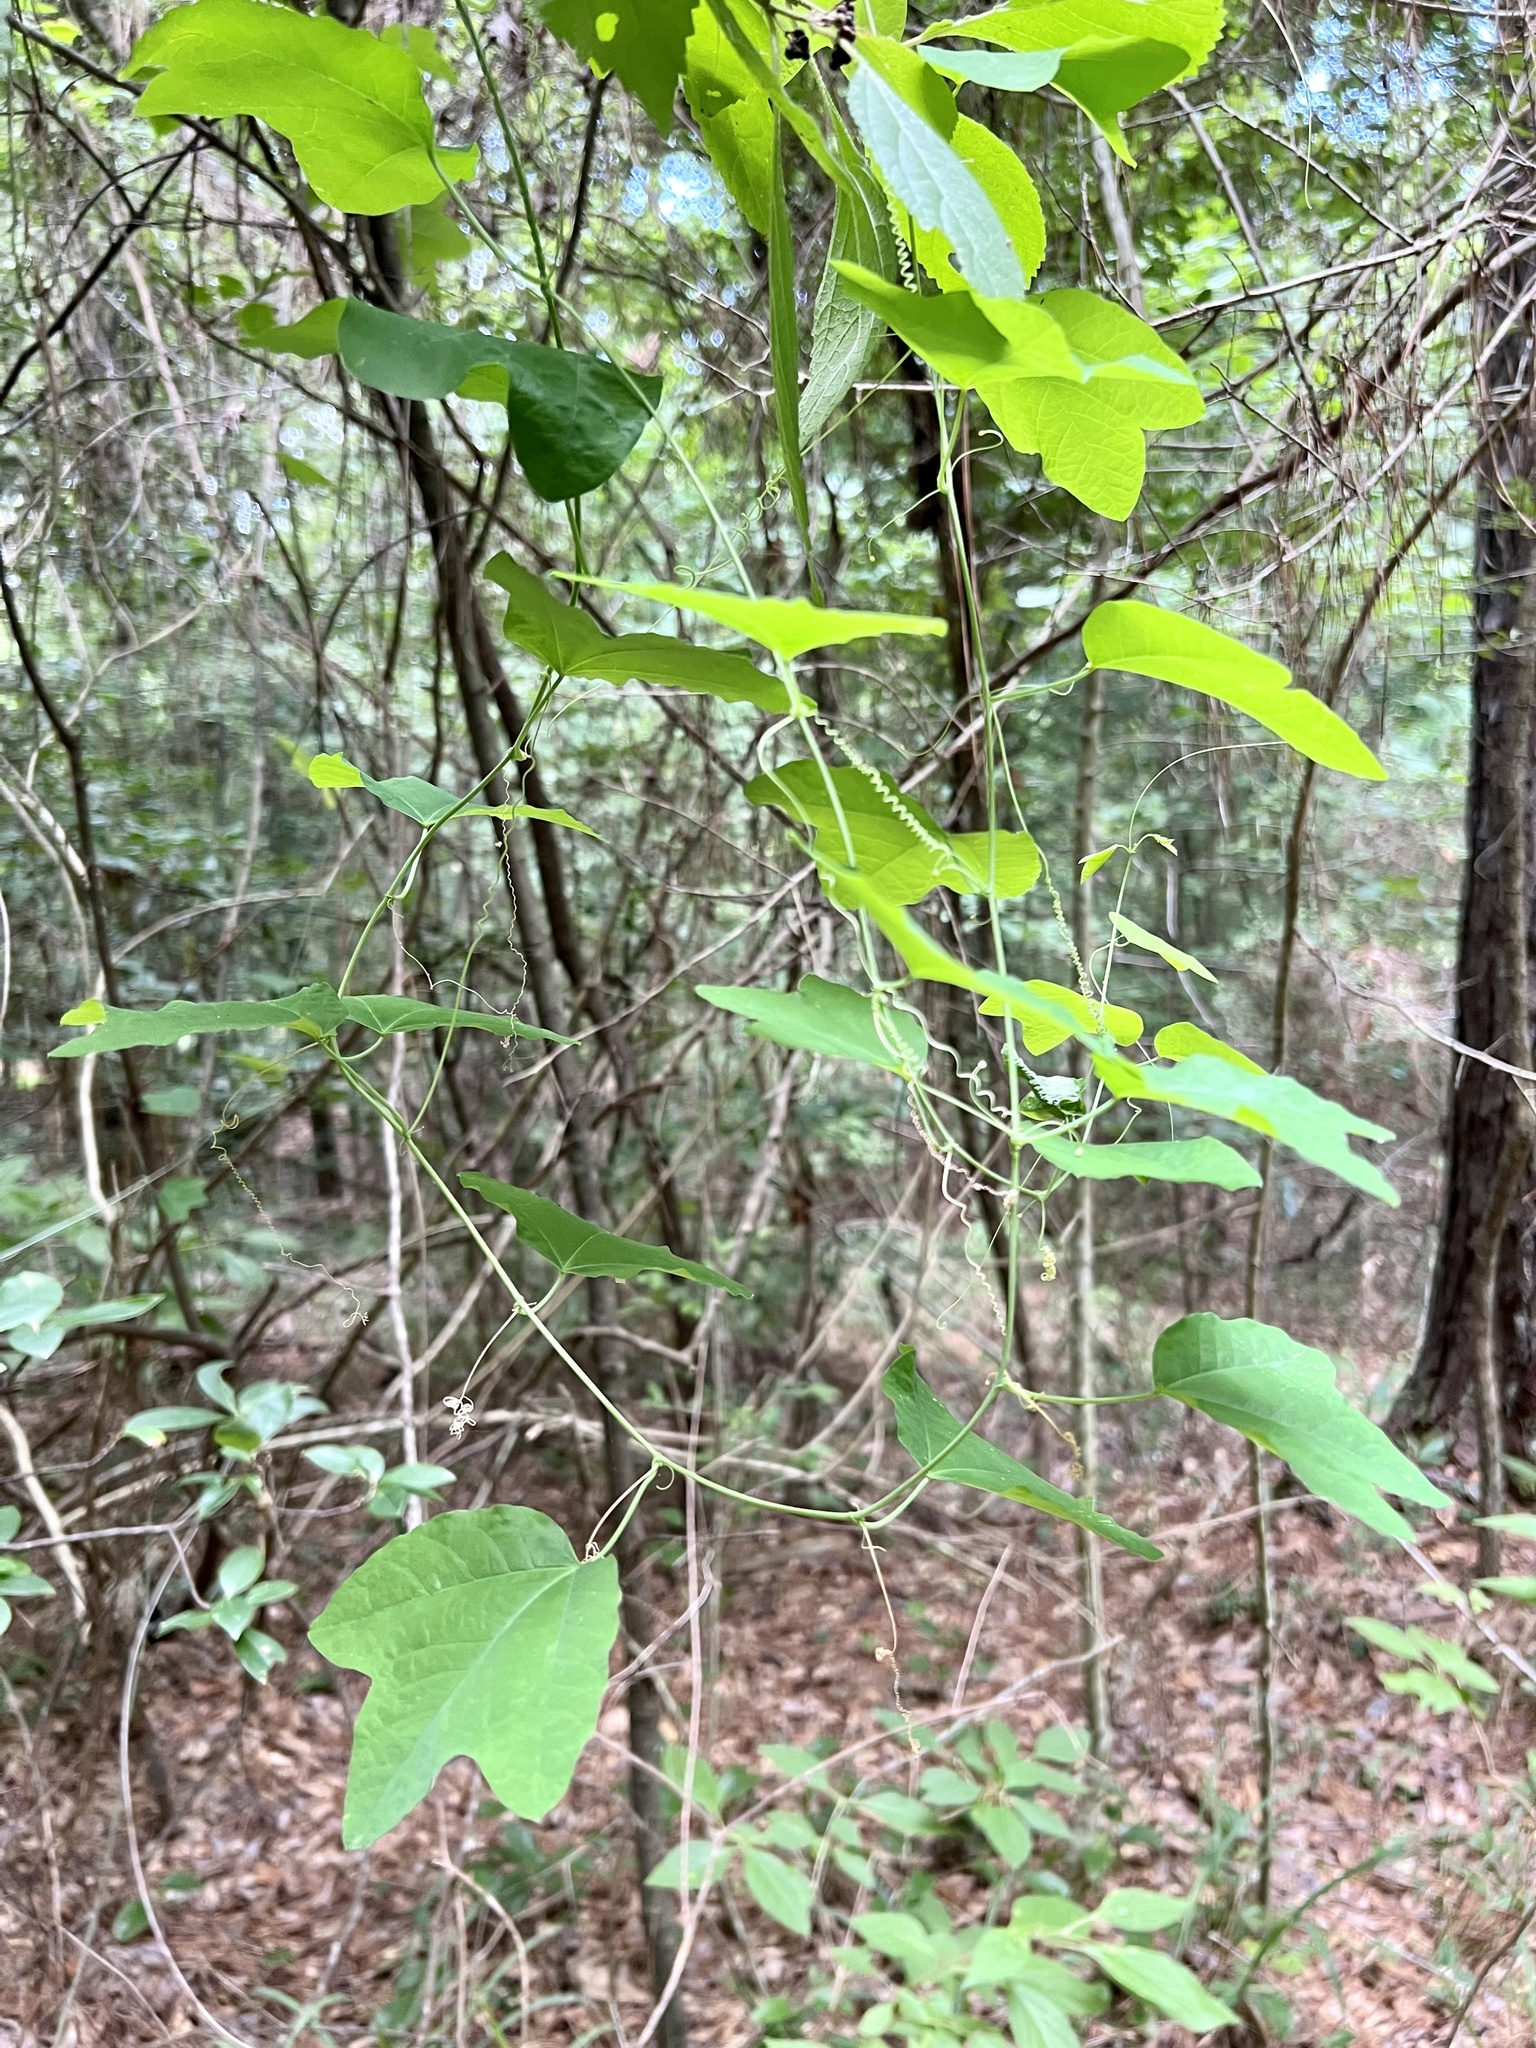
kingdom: Plantae
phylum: Tracheophyta
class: Magnoliopsida
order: Malpighiales
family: Passifloraceae
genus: Passiflora
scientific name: Passiflora lutea
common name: Yellow passionflower
